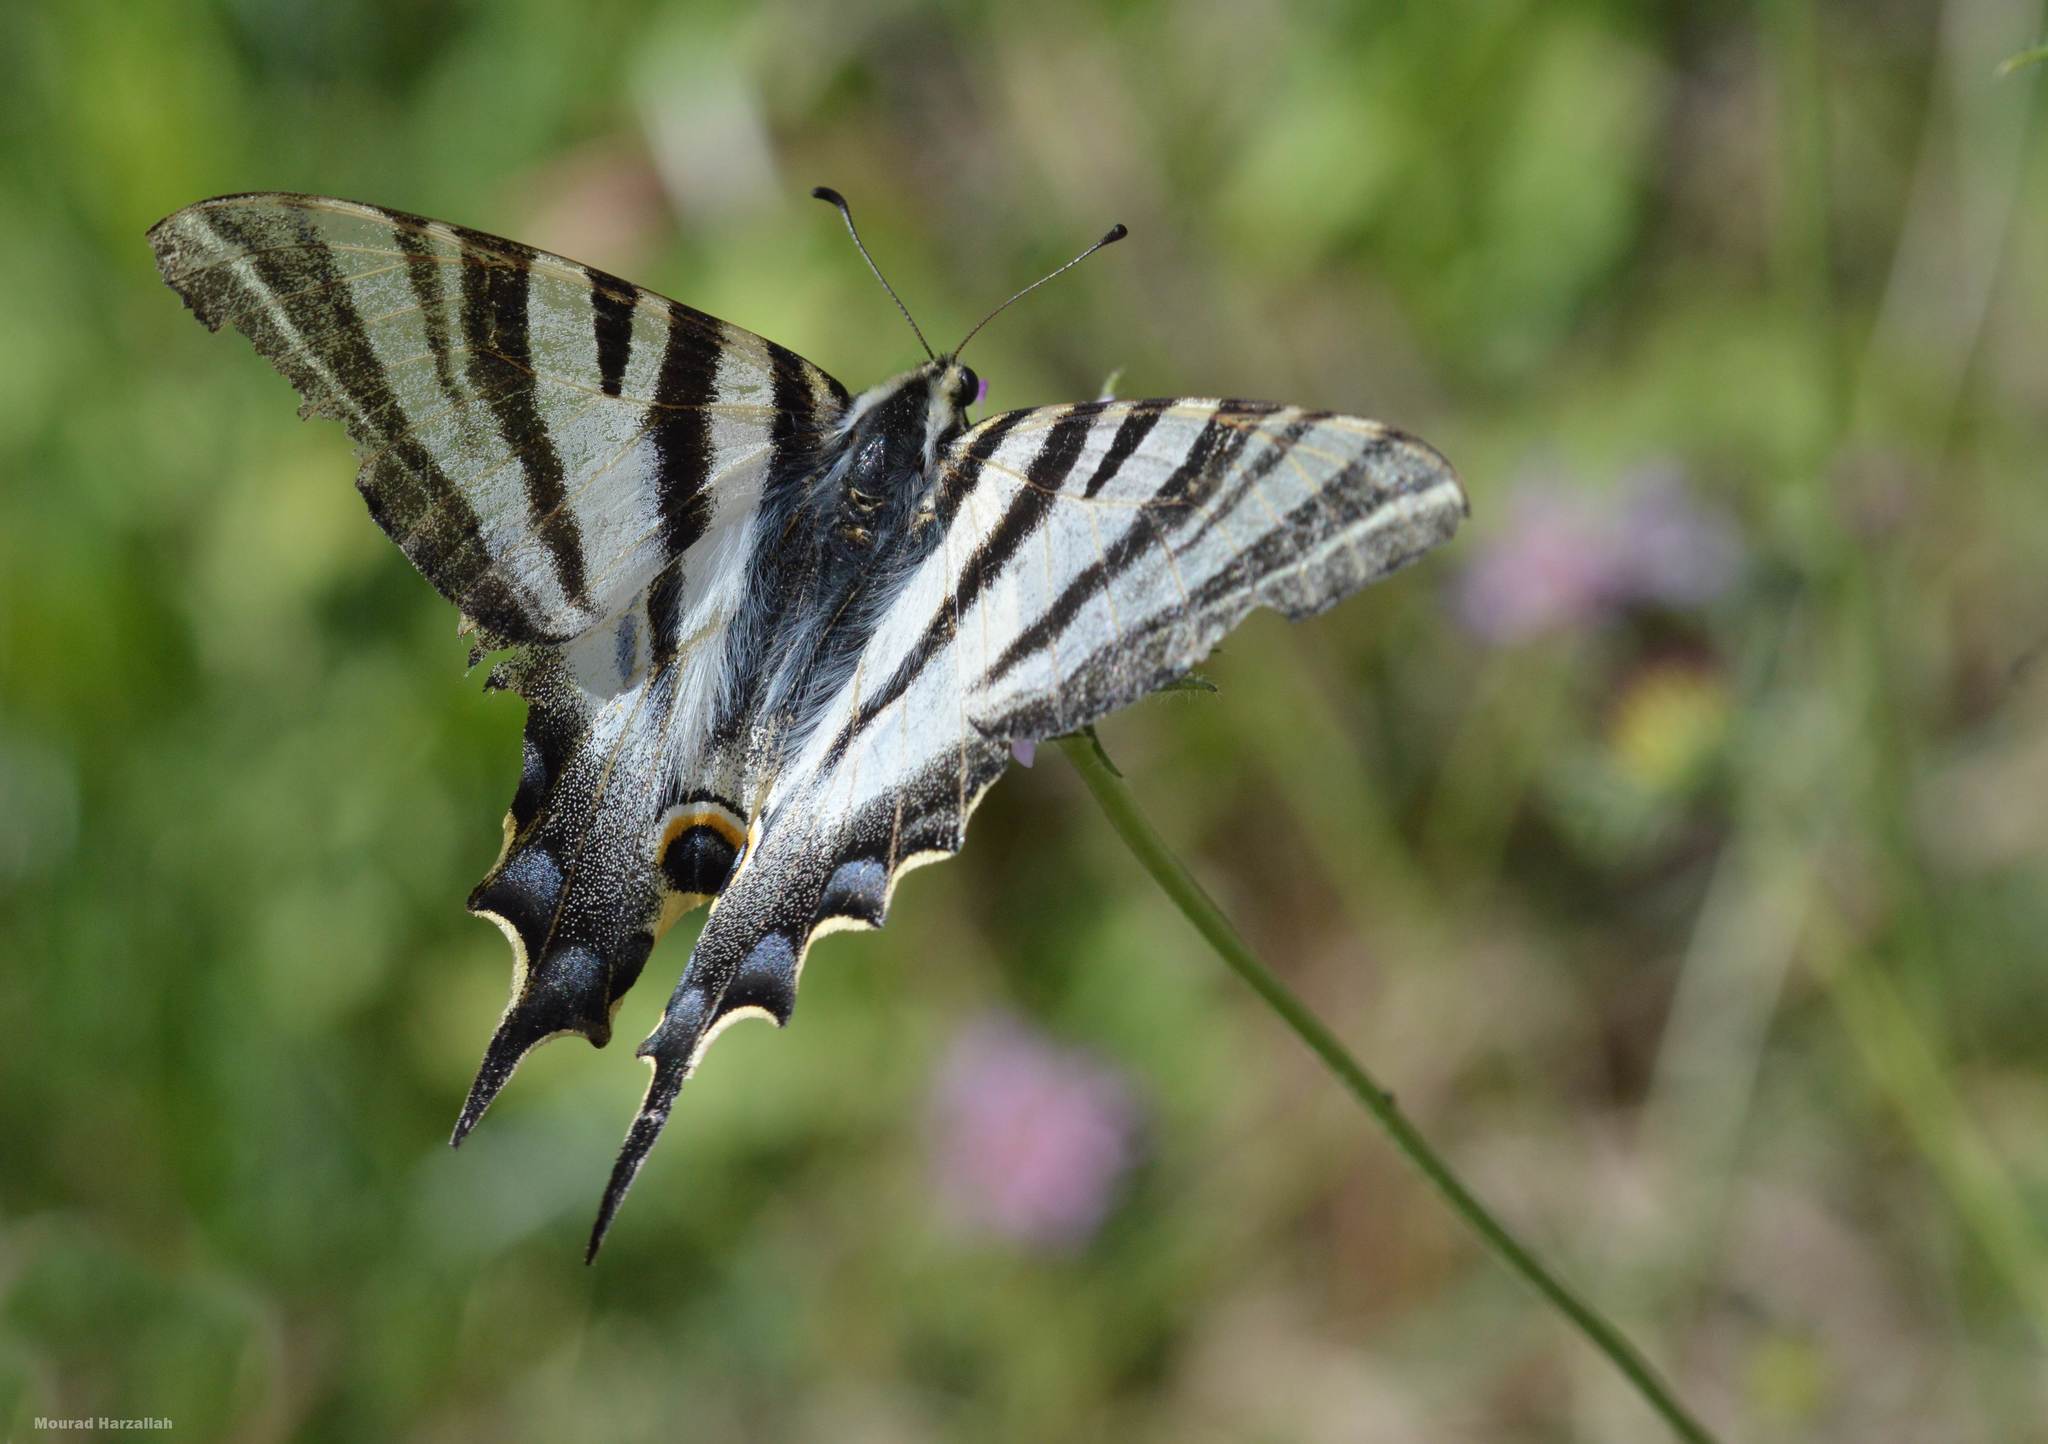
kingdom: Animalia
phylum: Arthropoda
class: Insecta
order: Lepidoptera
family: Papilionidae
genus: Iphiclides
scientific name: Iphiclides feisthamelii
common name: Iberian scarce swallowtail
